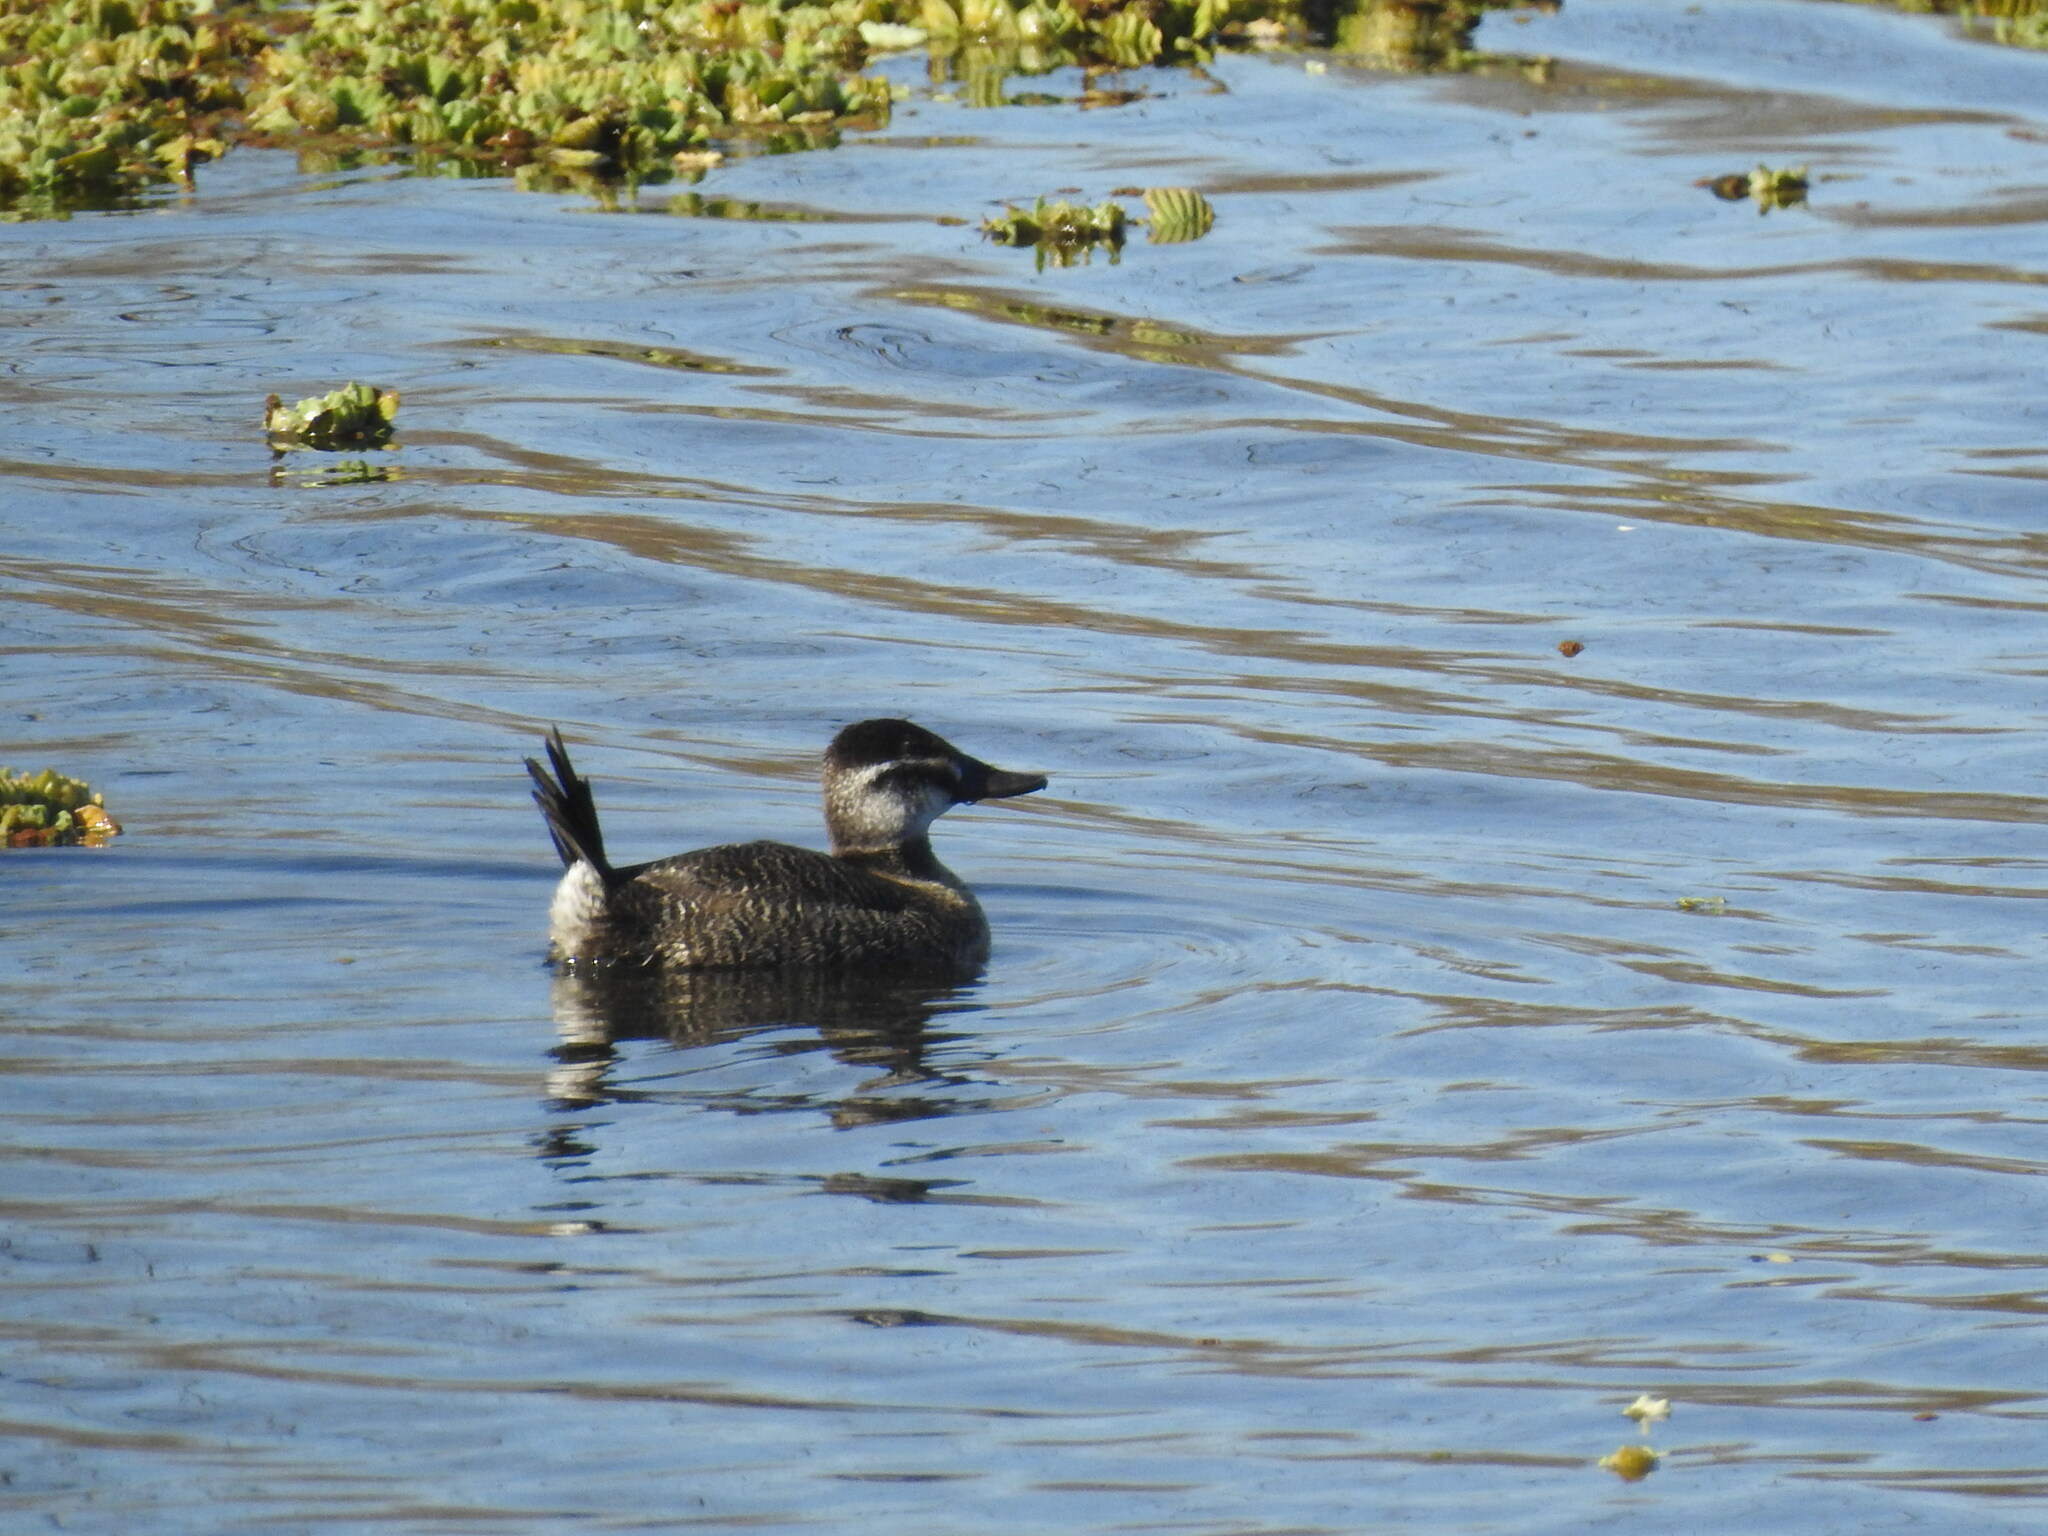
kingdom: Animalia
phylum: Chordata
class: Aves
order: Anseriformes
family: Anatidae
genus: Oxyura
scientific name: Oxyura vittata
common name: Lake duck
